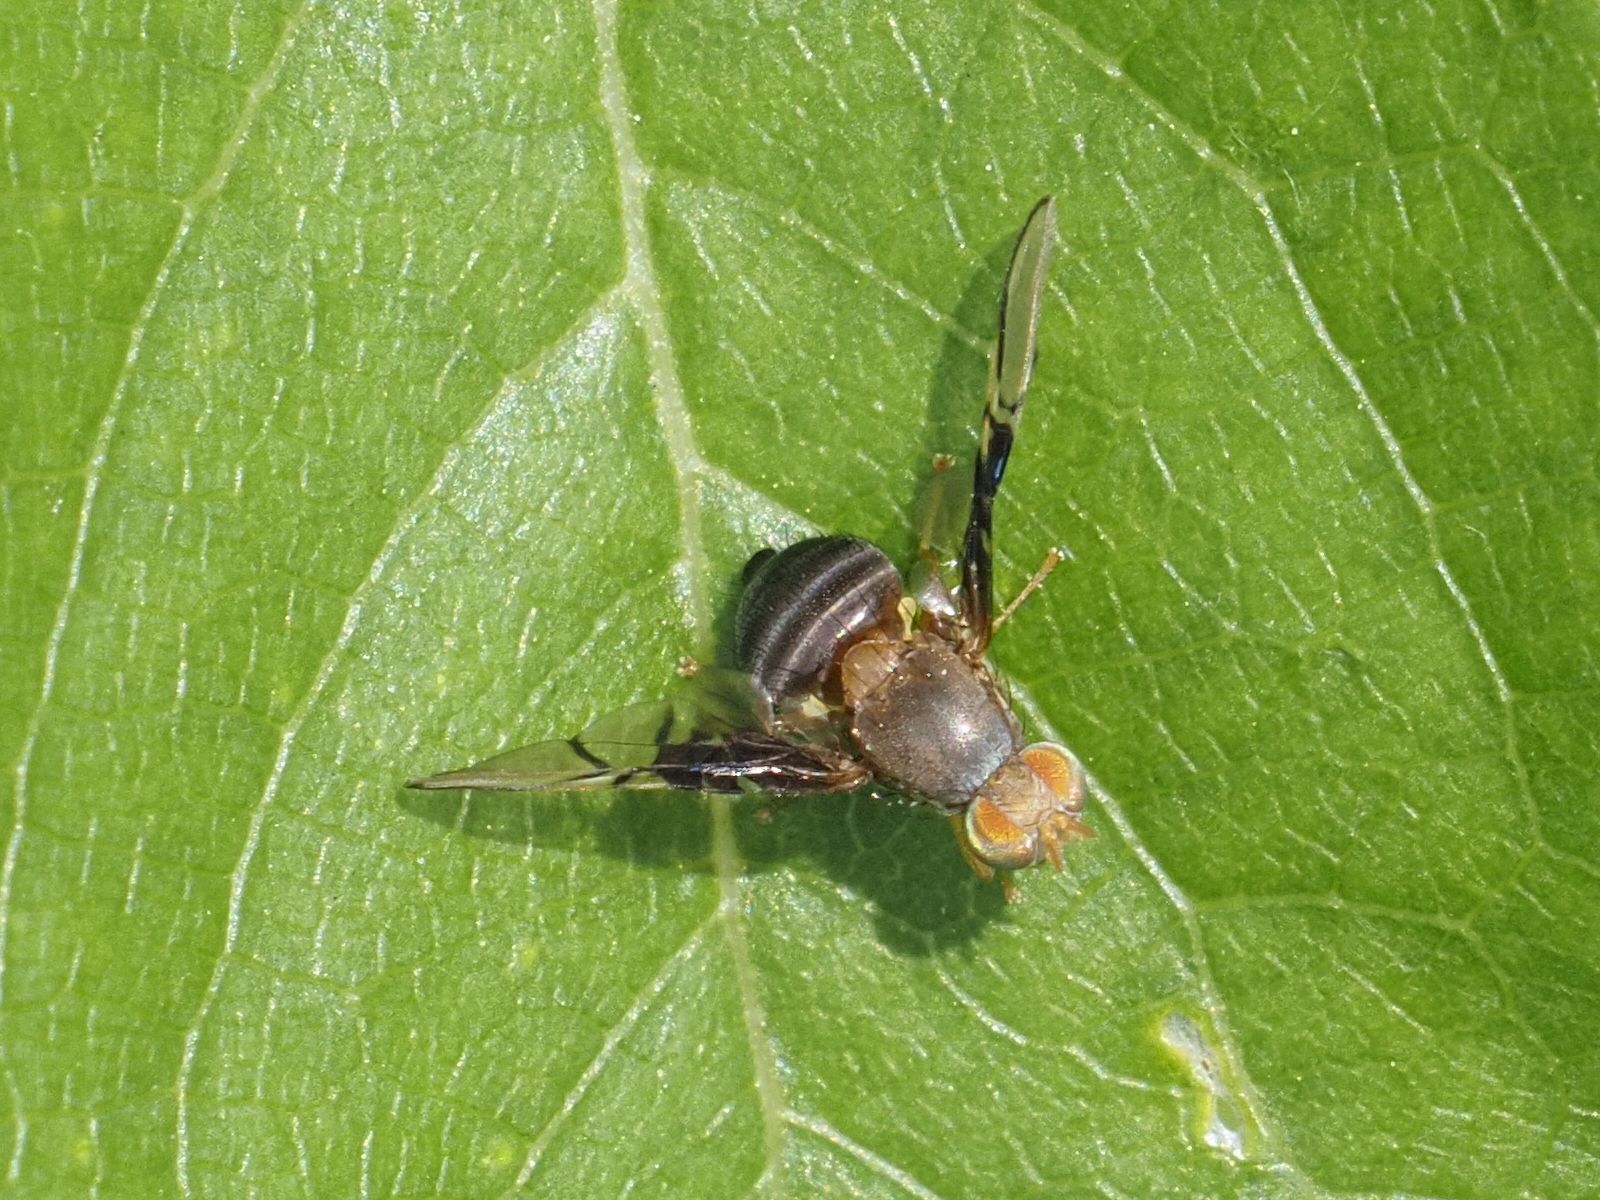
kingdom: Animalia
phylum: Arthropoda
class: Insecta
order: Diptera
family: Tephritidae
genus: Anomoia
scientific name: Anomoia purmunda
